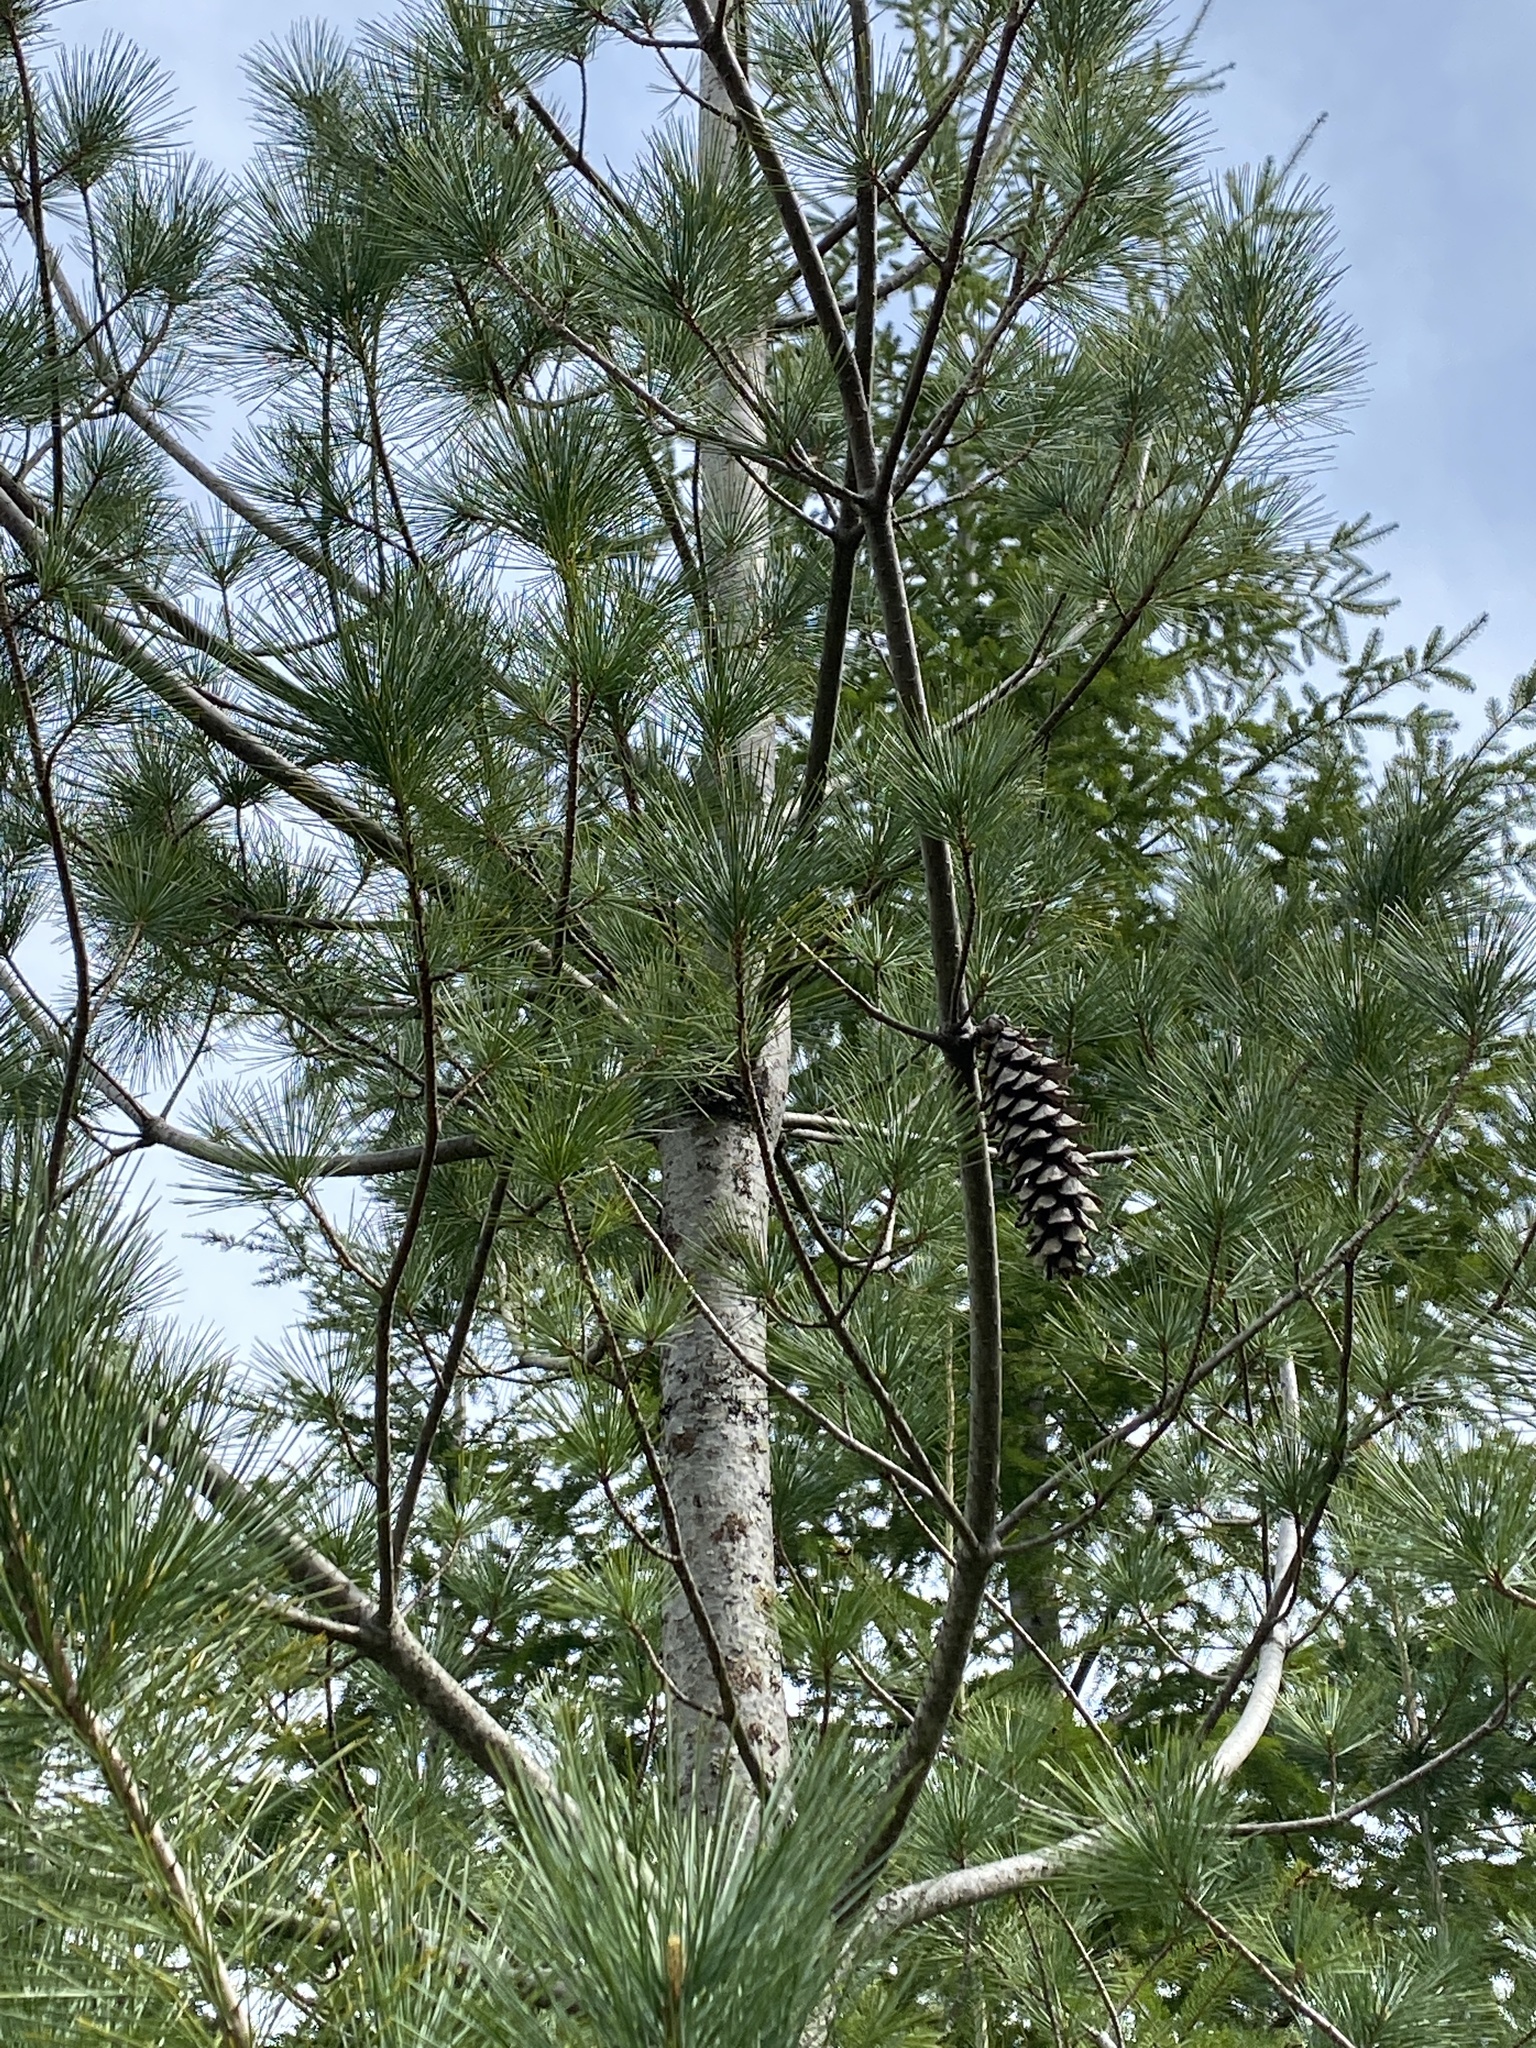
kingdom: Plantae
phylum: Tracheophyta
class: Pinopsida
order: Pinales
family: Pinaceae
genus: Pinus
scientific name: Pinus monticola
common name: Western white pine
